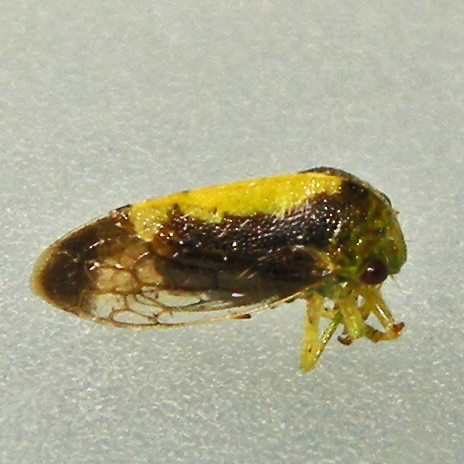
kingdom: Animalia
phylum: Arthropoda
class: Insecta
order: Hemiptera
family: Membracidae
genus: Atymna
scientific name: Atymna querci
